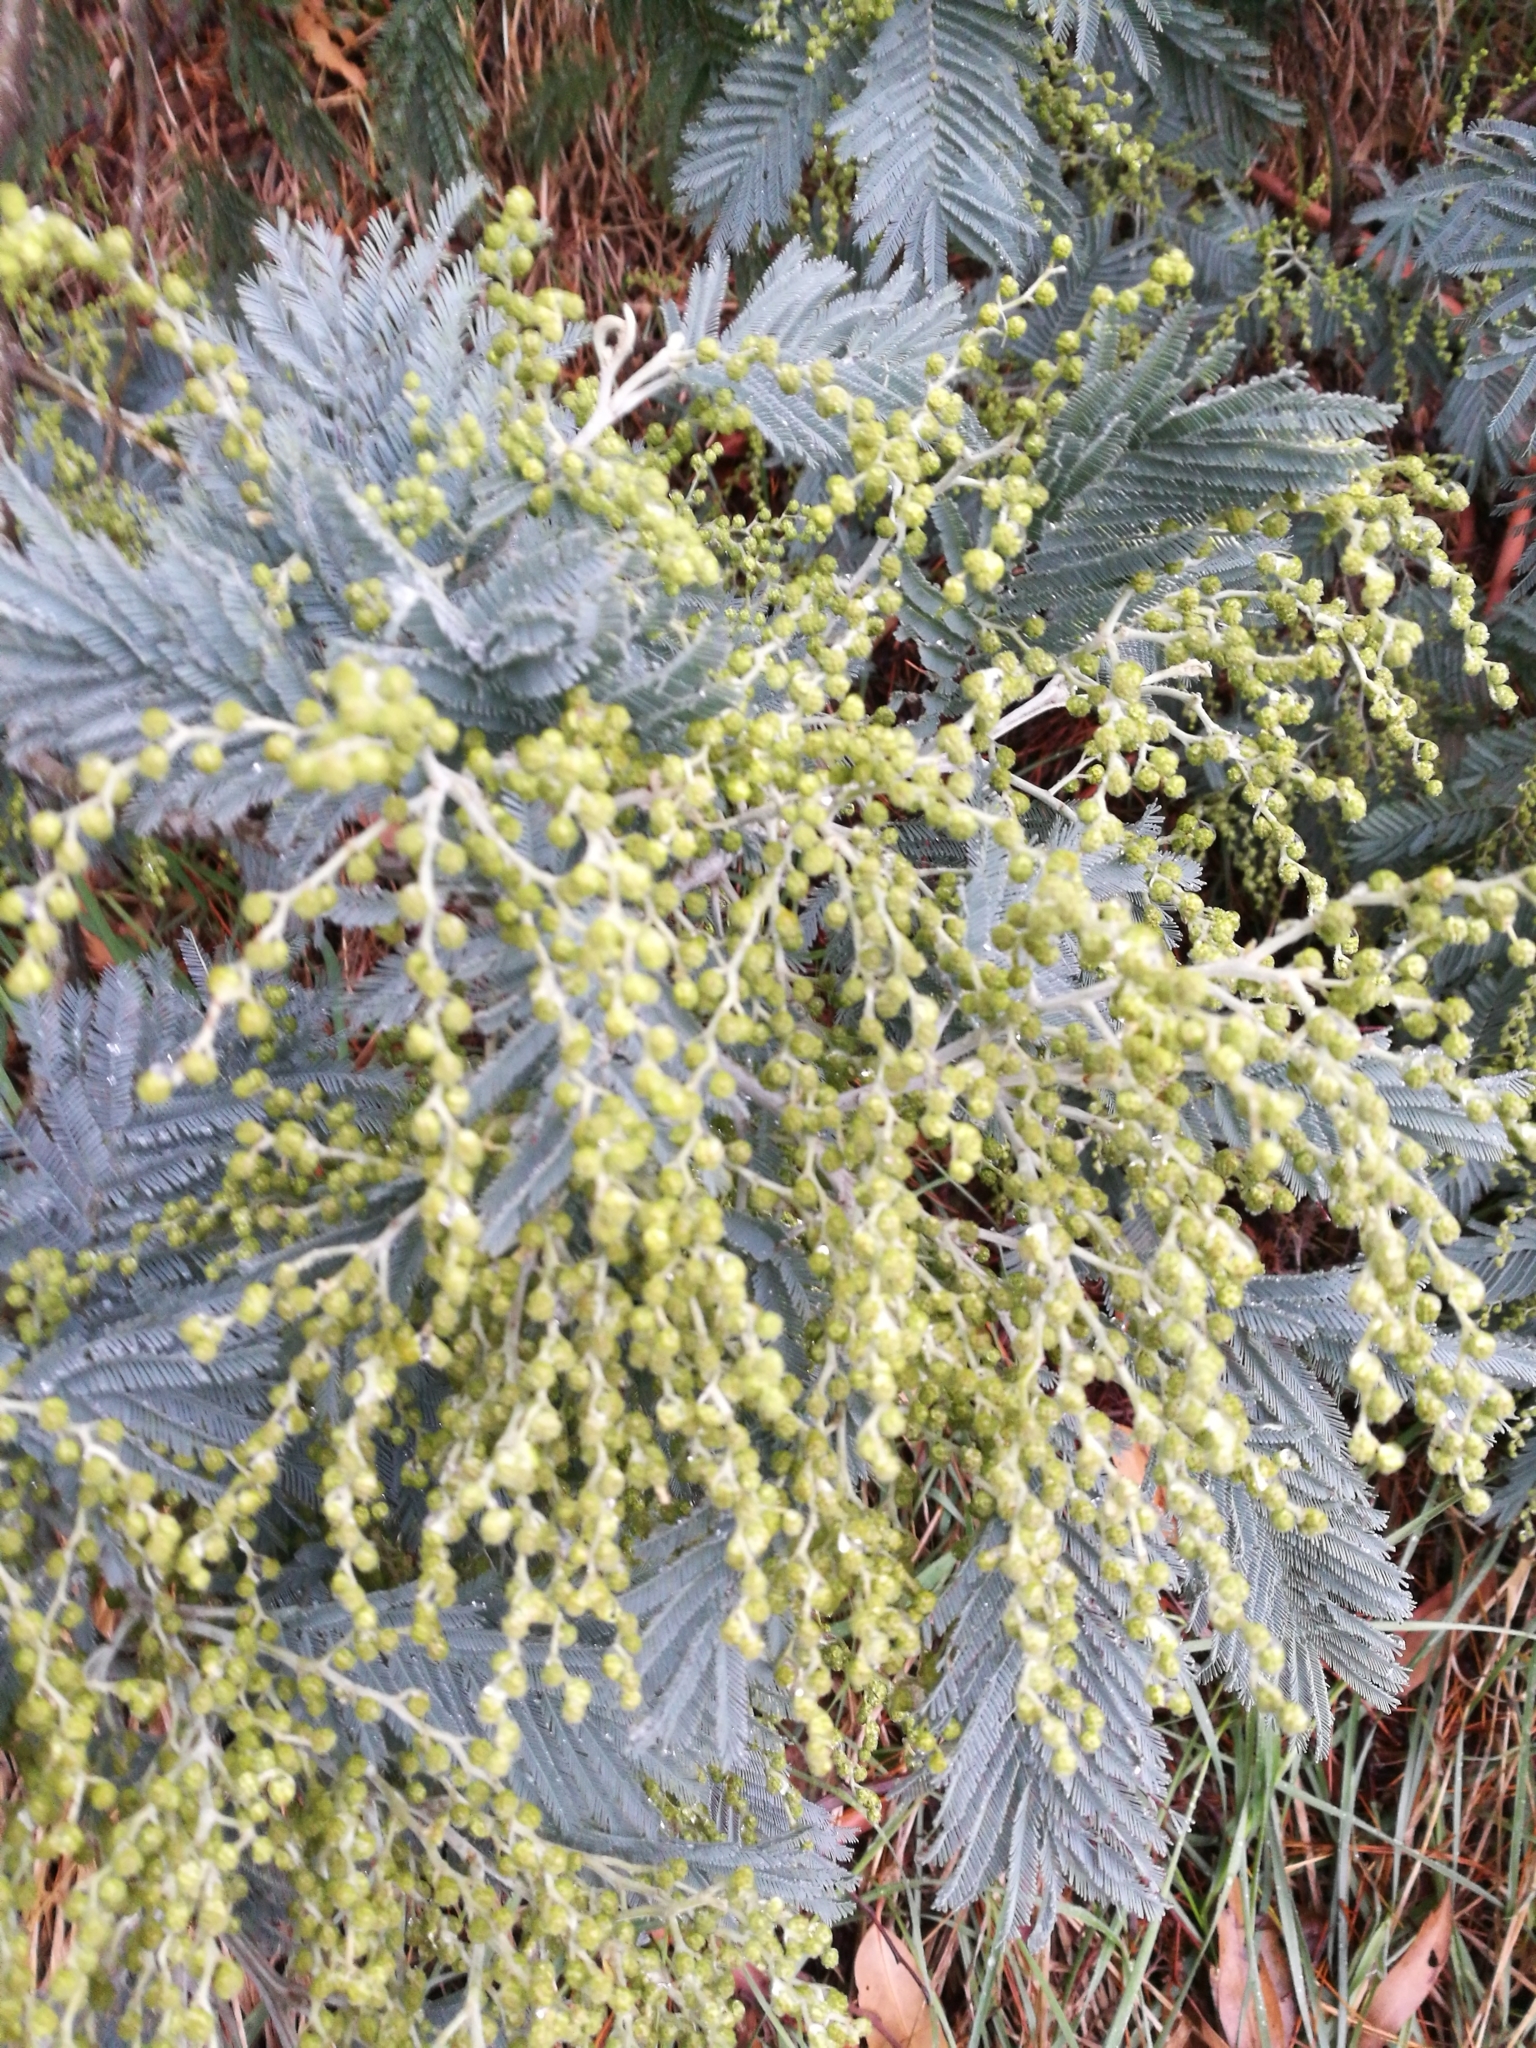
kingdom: Plantae
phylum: Tracheophyta
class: Magnoliopsida
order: Fabales
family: Fabaceae
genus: Acacia
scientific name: Acacia dealbata
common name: Silver wattle
